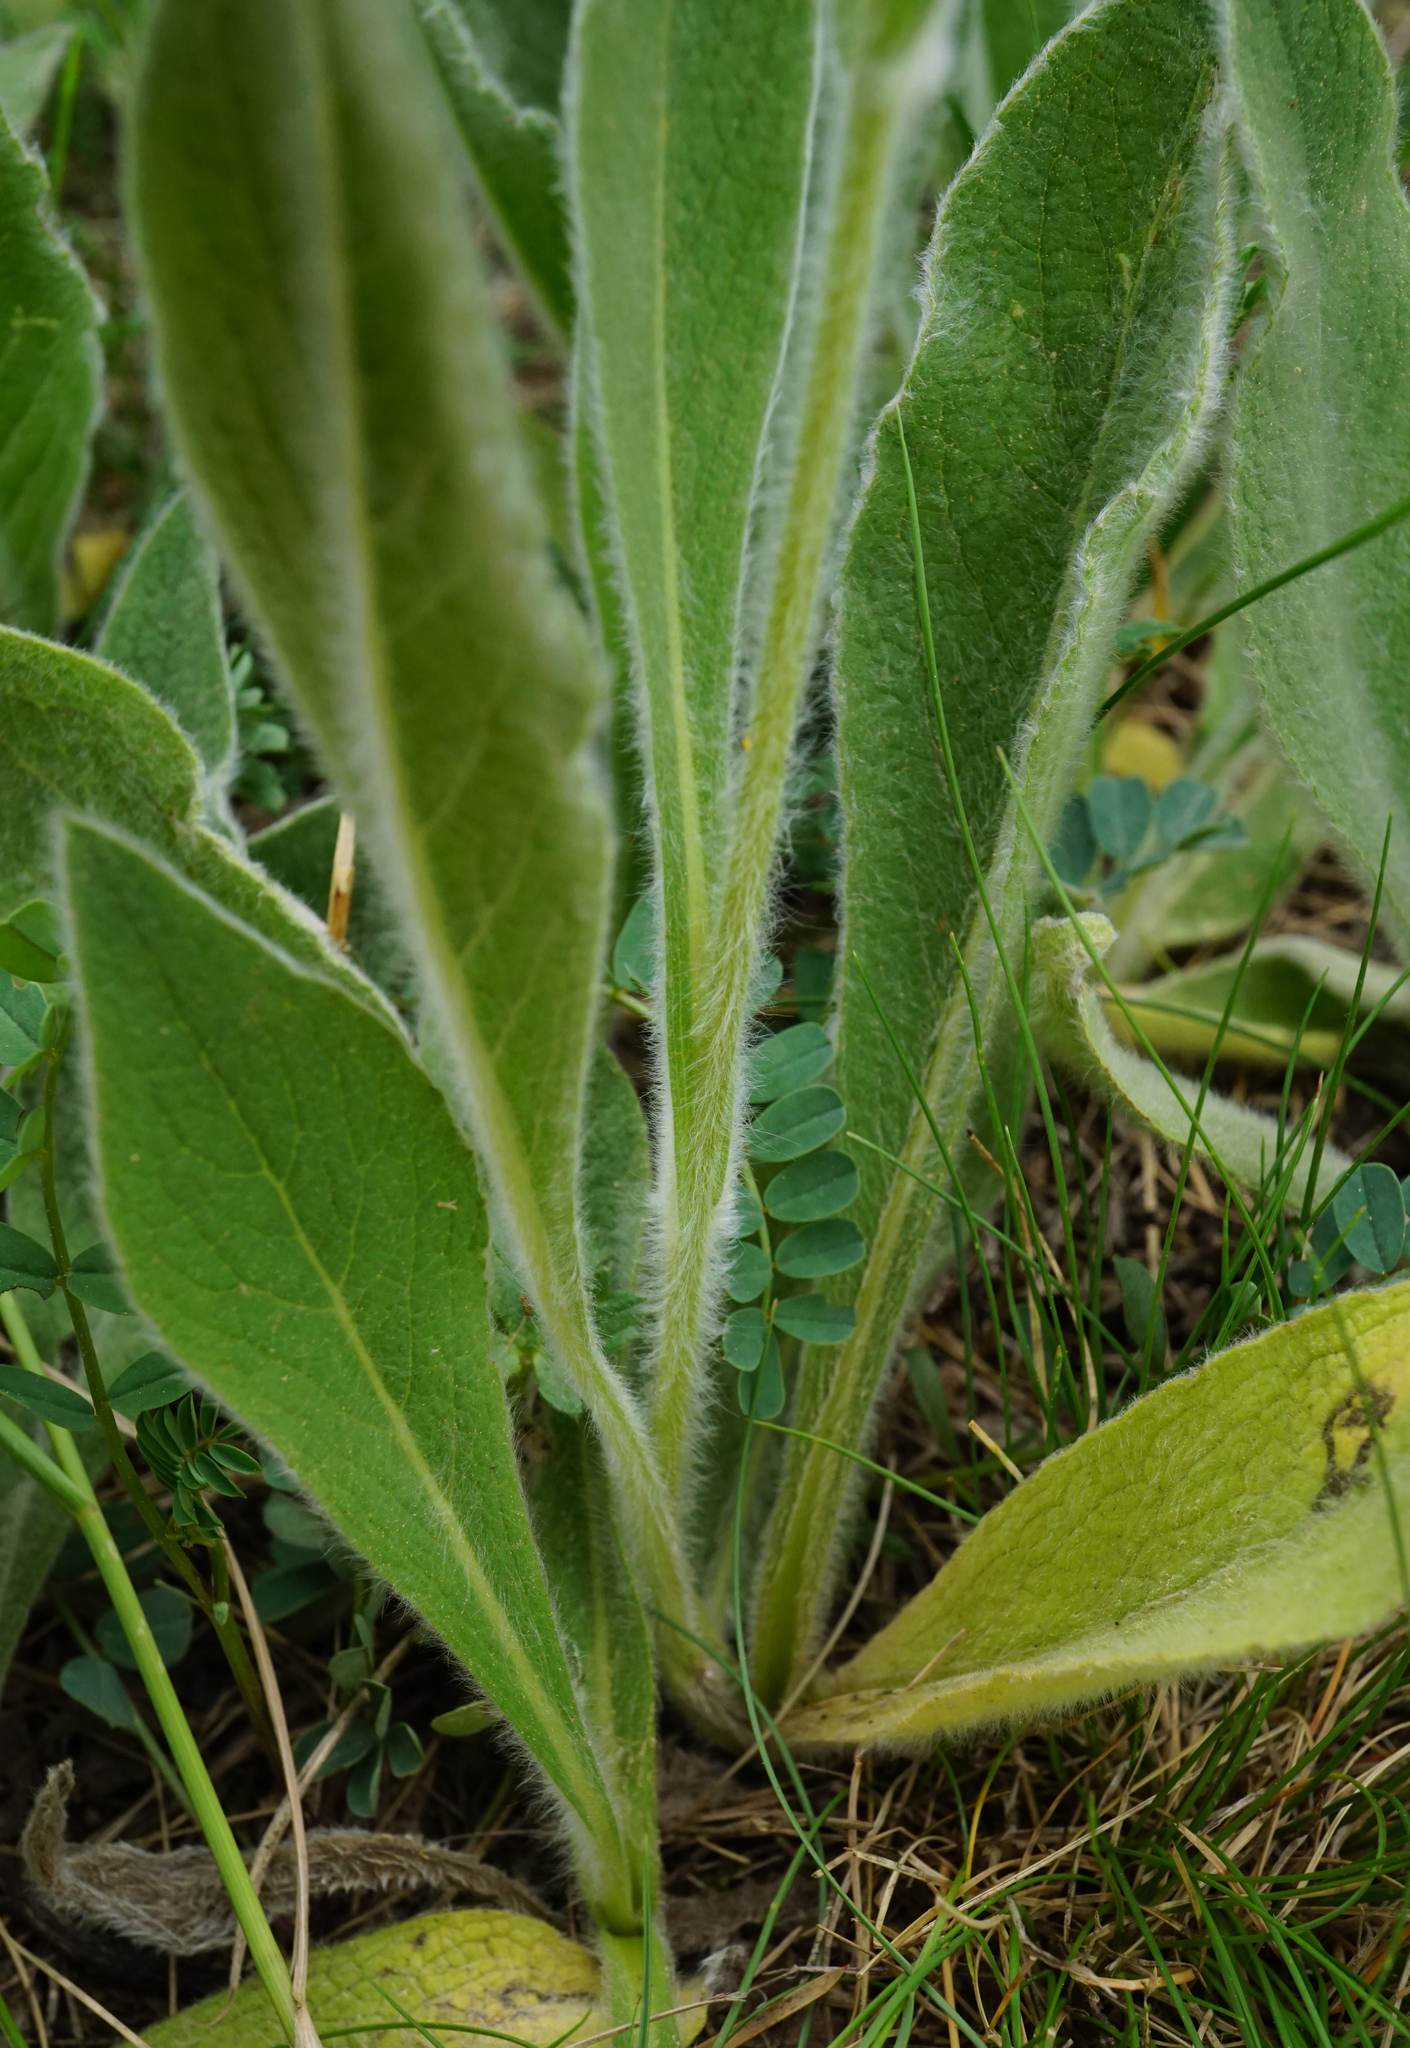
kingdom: Plantae
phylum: Tracheophyta
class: Magnoliopsida
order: Asterales
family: Asteraceae
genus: Pentanema
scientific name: Pentanema oculus-christi
